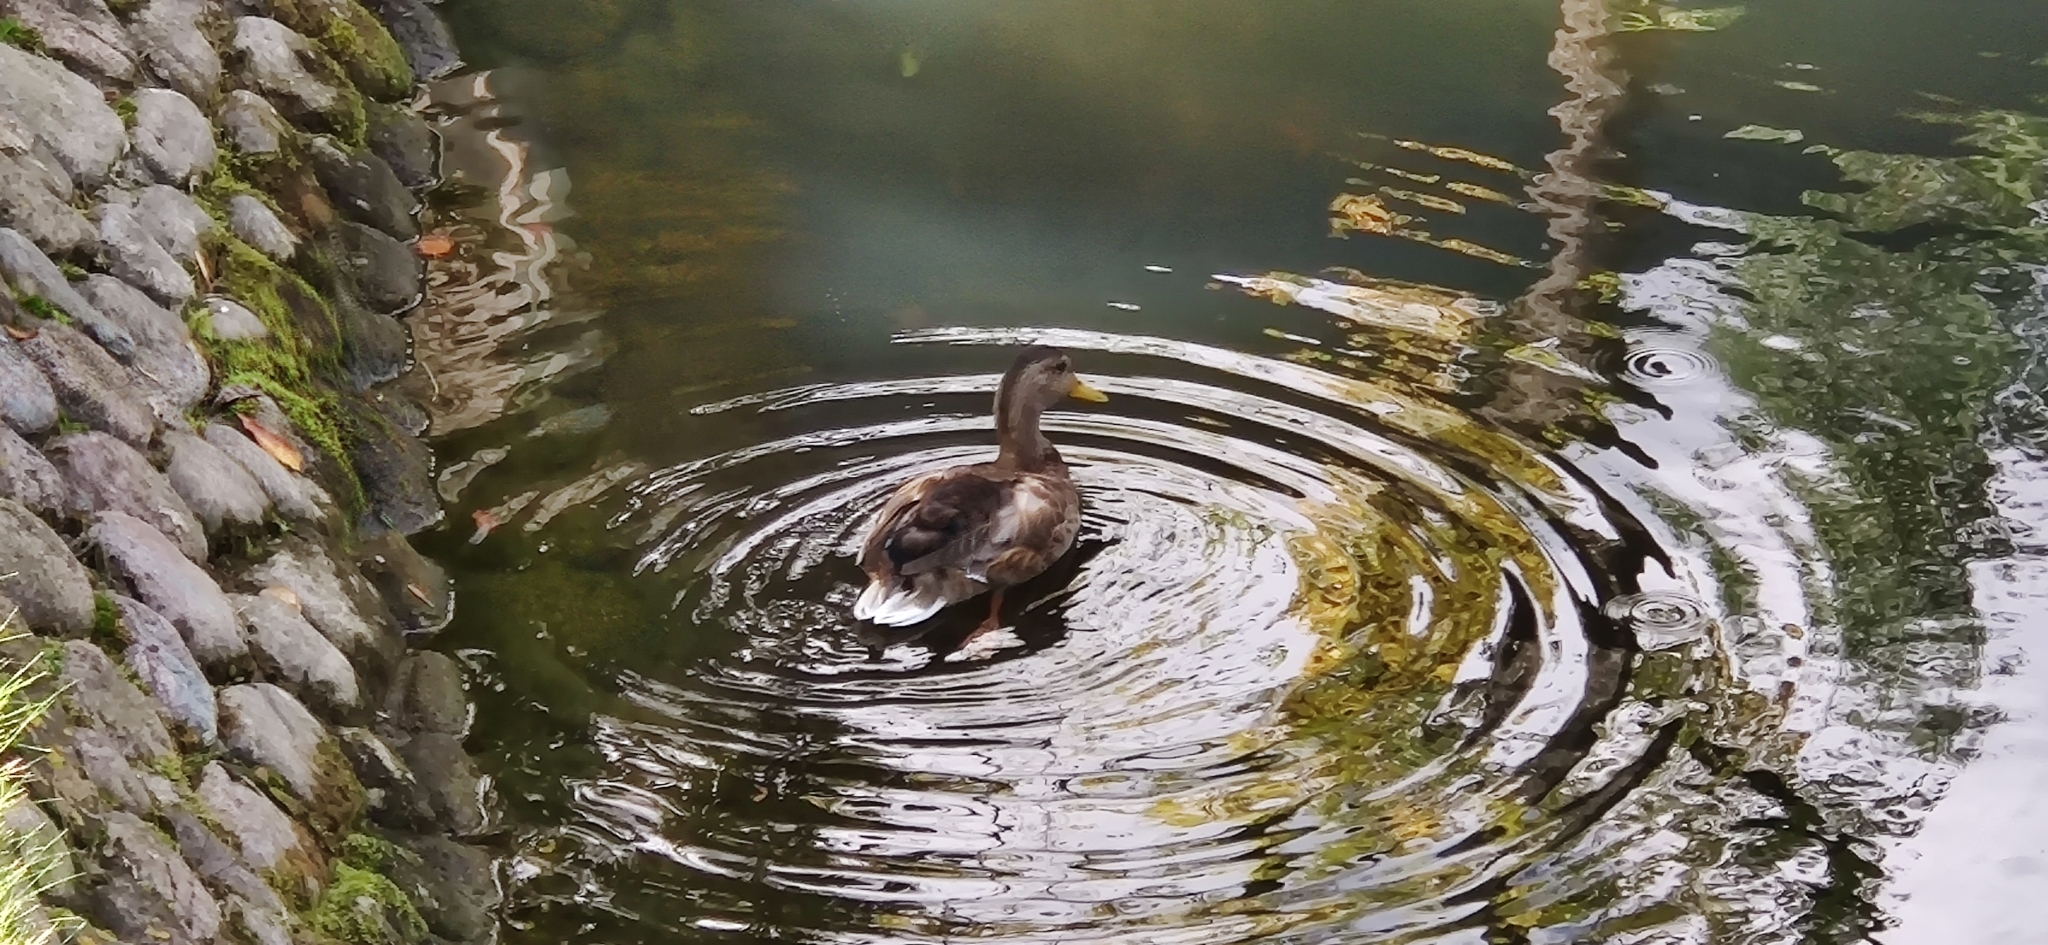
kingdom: Animalia
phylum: Chordata
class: Aves
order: Anseriformes
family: Anatidae
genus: Anas
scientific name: Anas platyrhynchos
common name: Mallard
